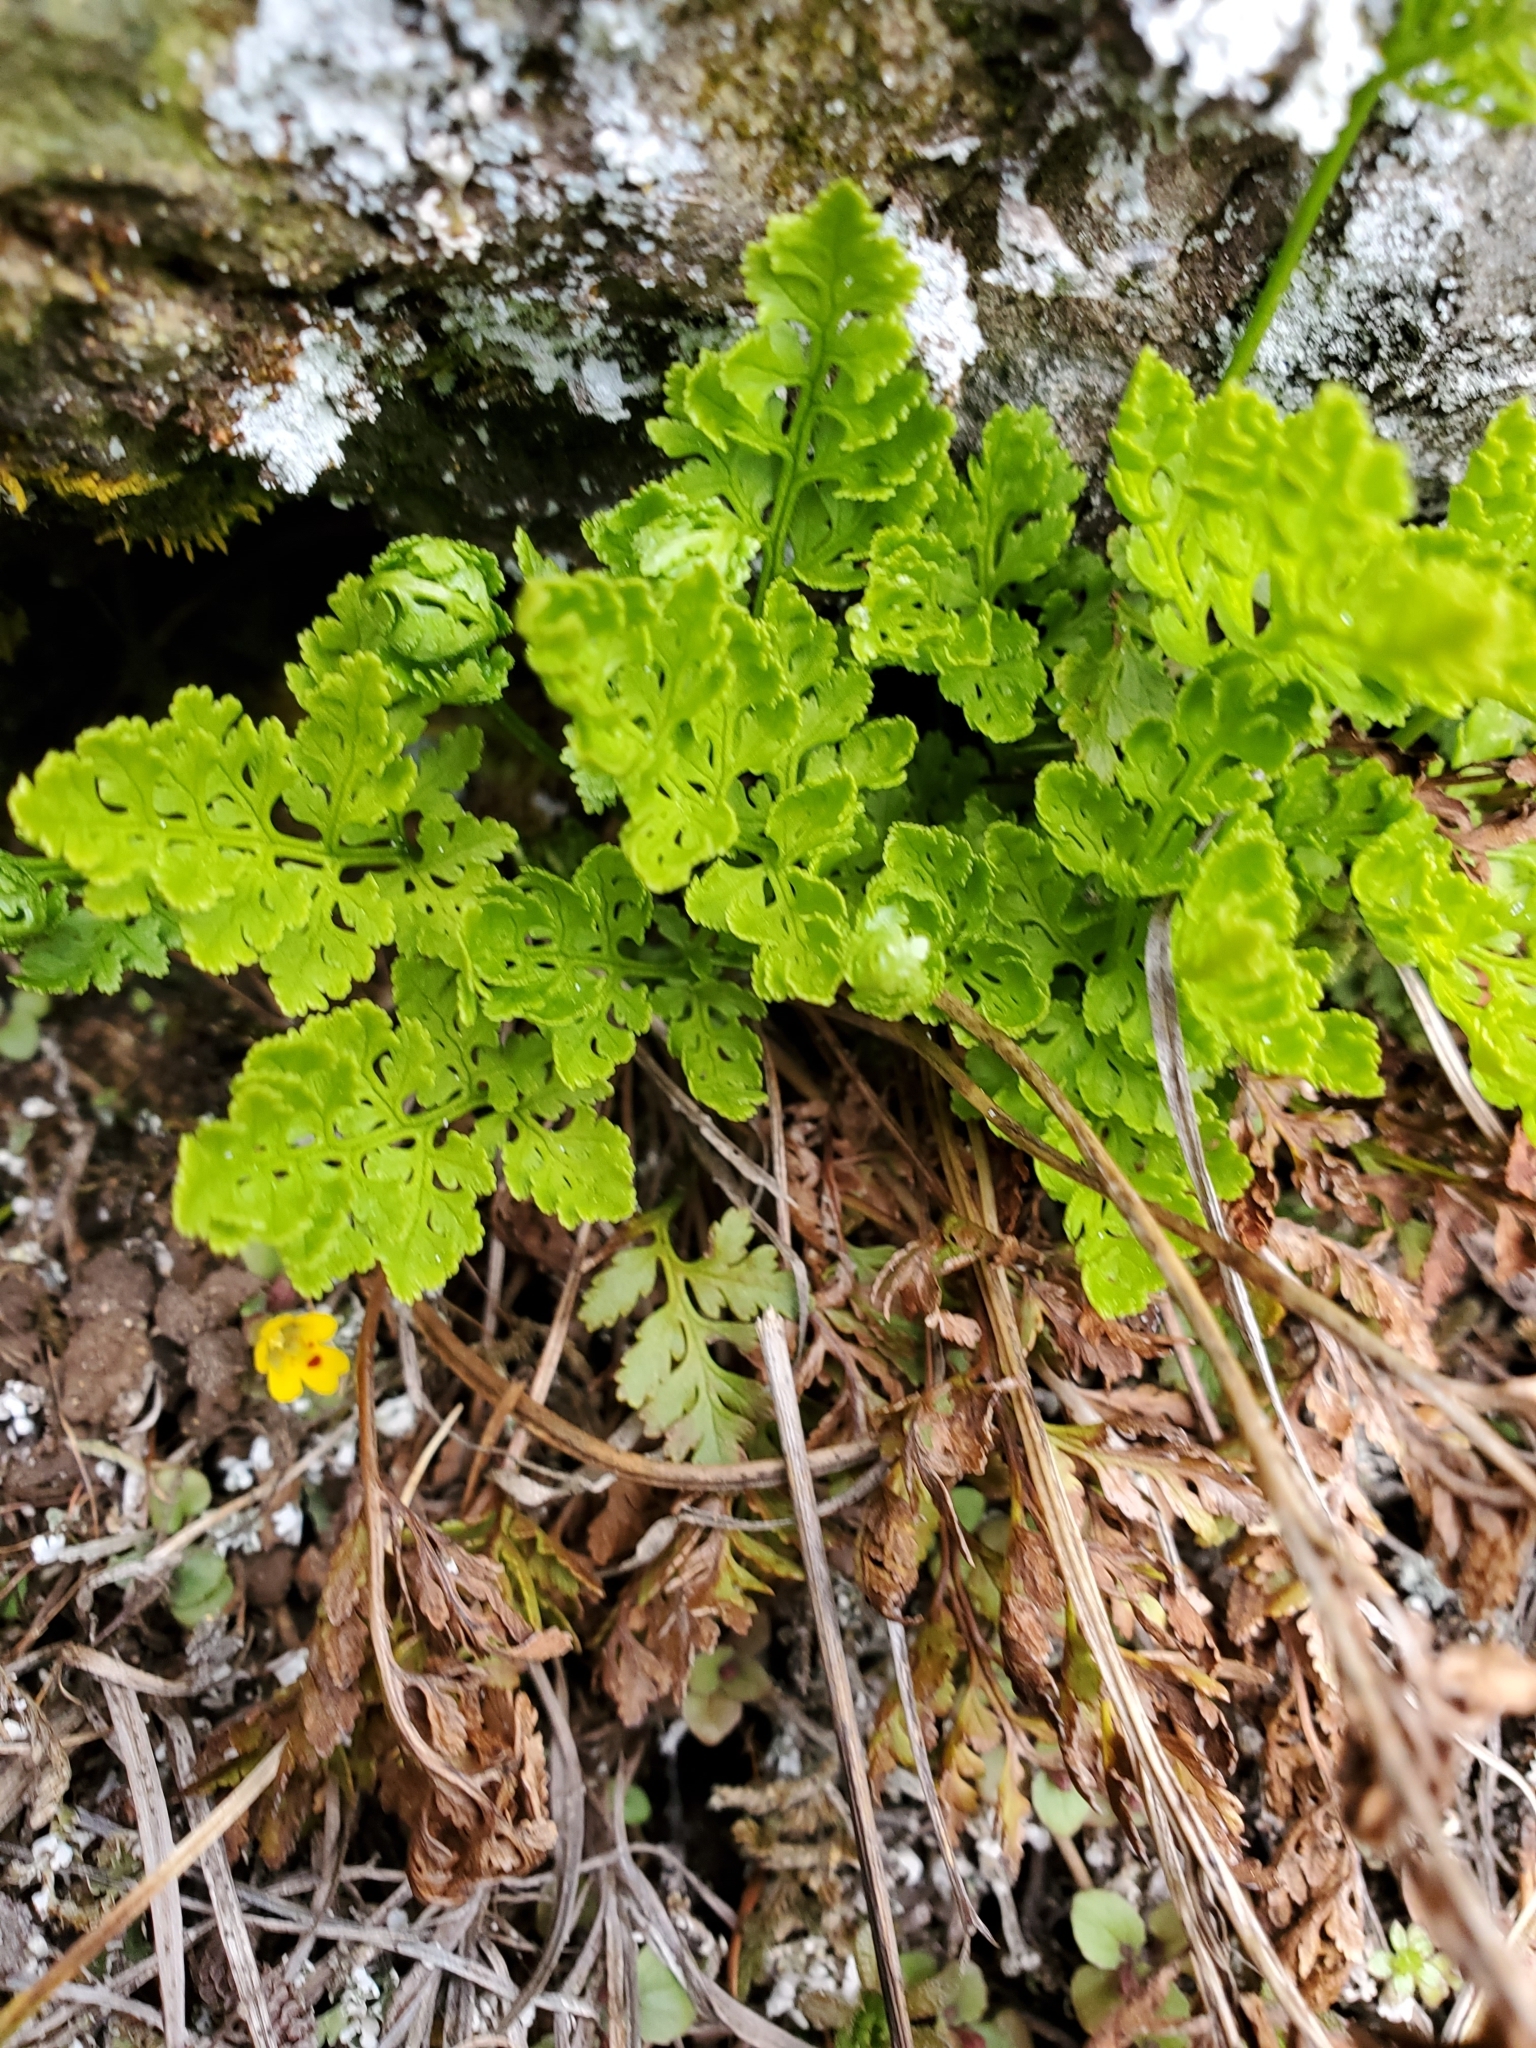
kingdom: Plantae
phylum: Tracheophyta
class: Polypodiopsida
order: Polypodiales
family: Pteridaceae
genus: Cryptogramma
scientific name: Cryptogramma acrostichoides
